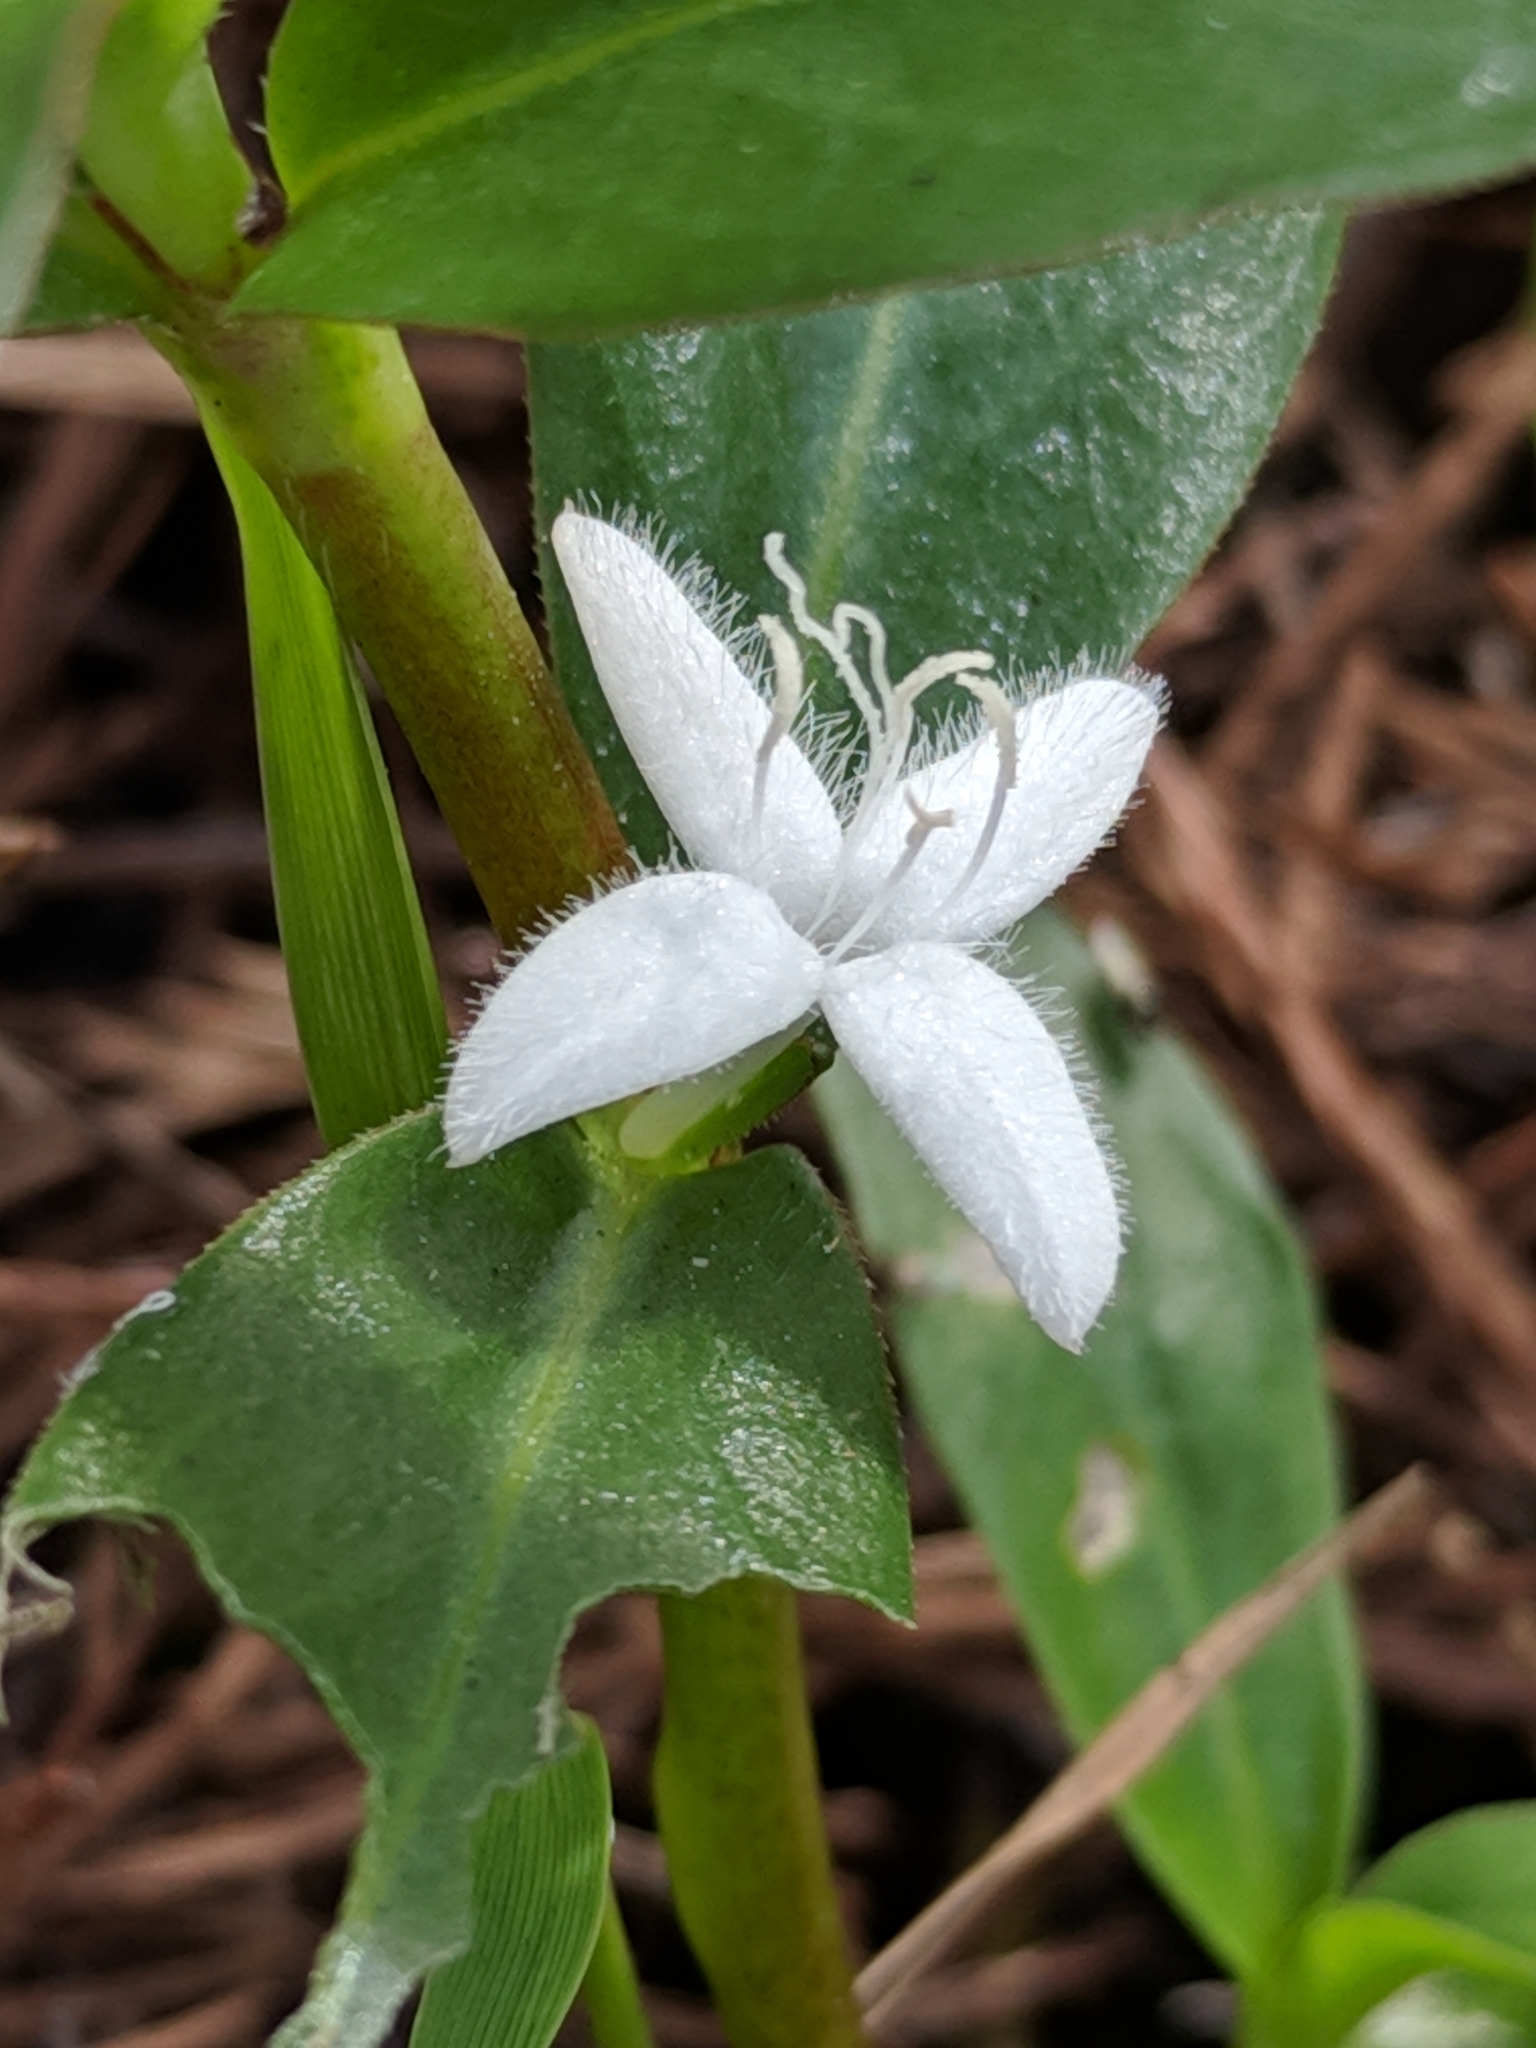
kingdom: Plantae
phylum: Tracheophyta
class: Magnoliopsida
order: Gentianales
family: Rubiaceae
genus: Diodia
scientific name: Diodia virginiana
